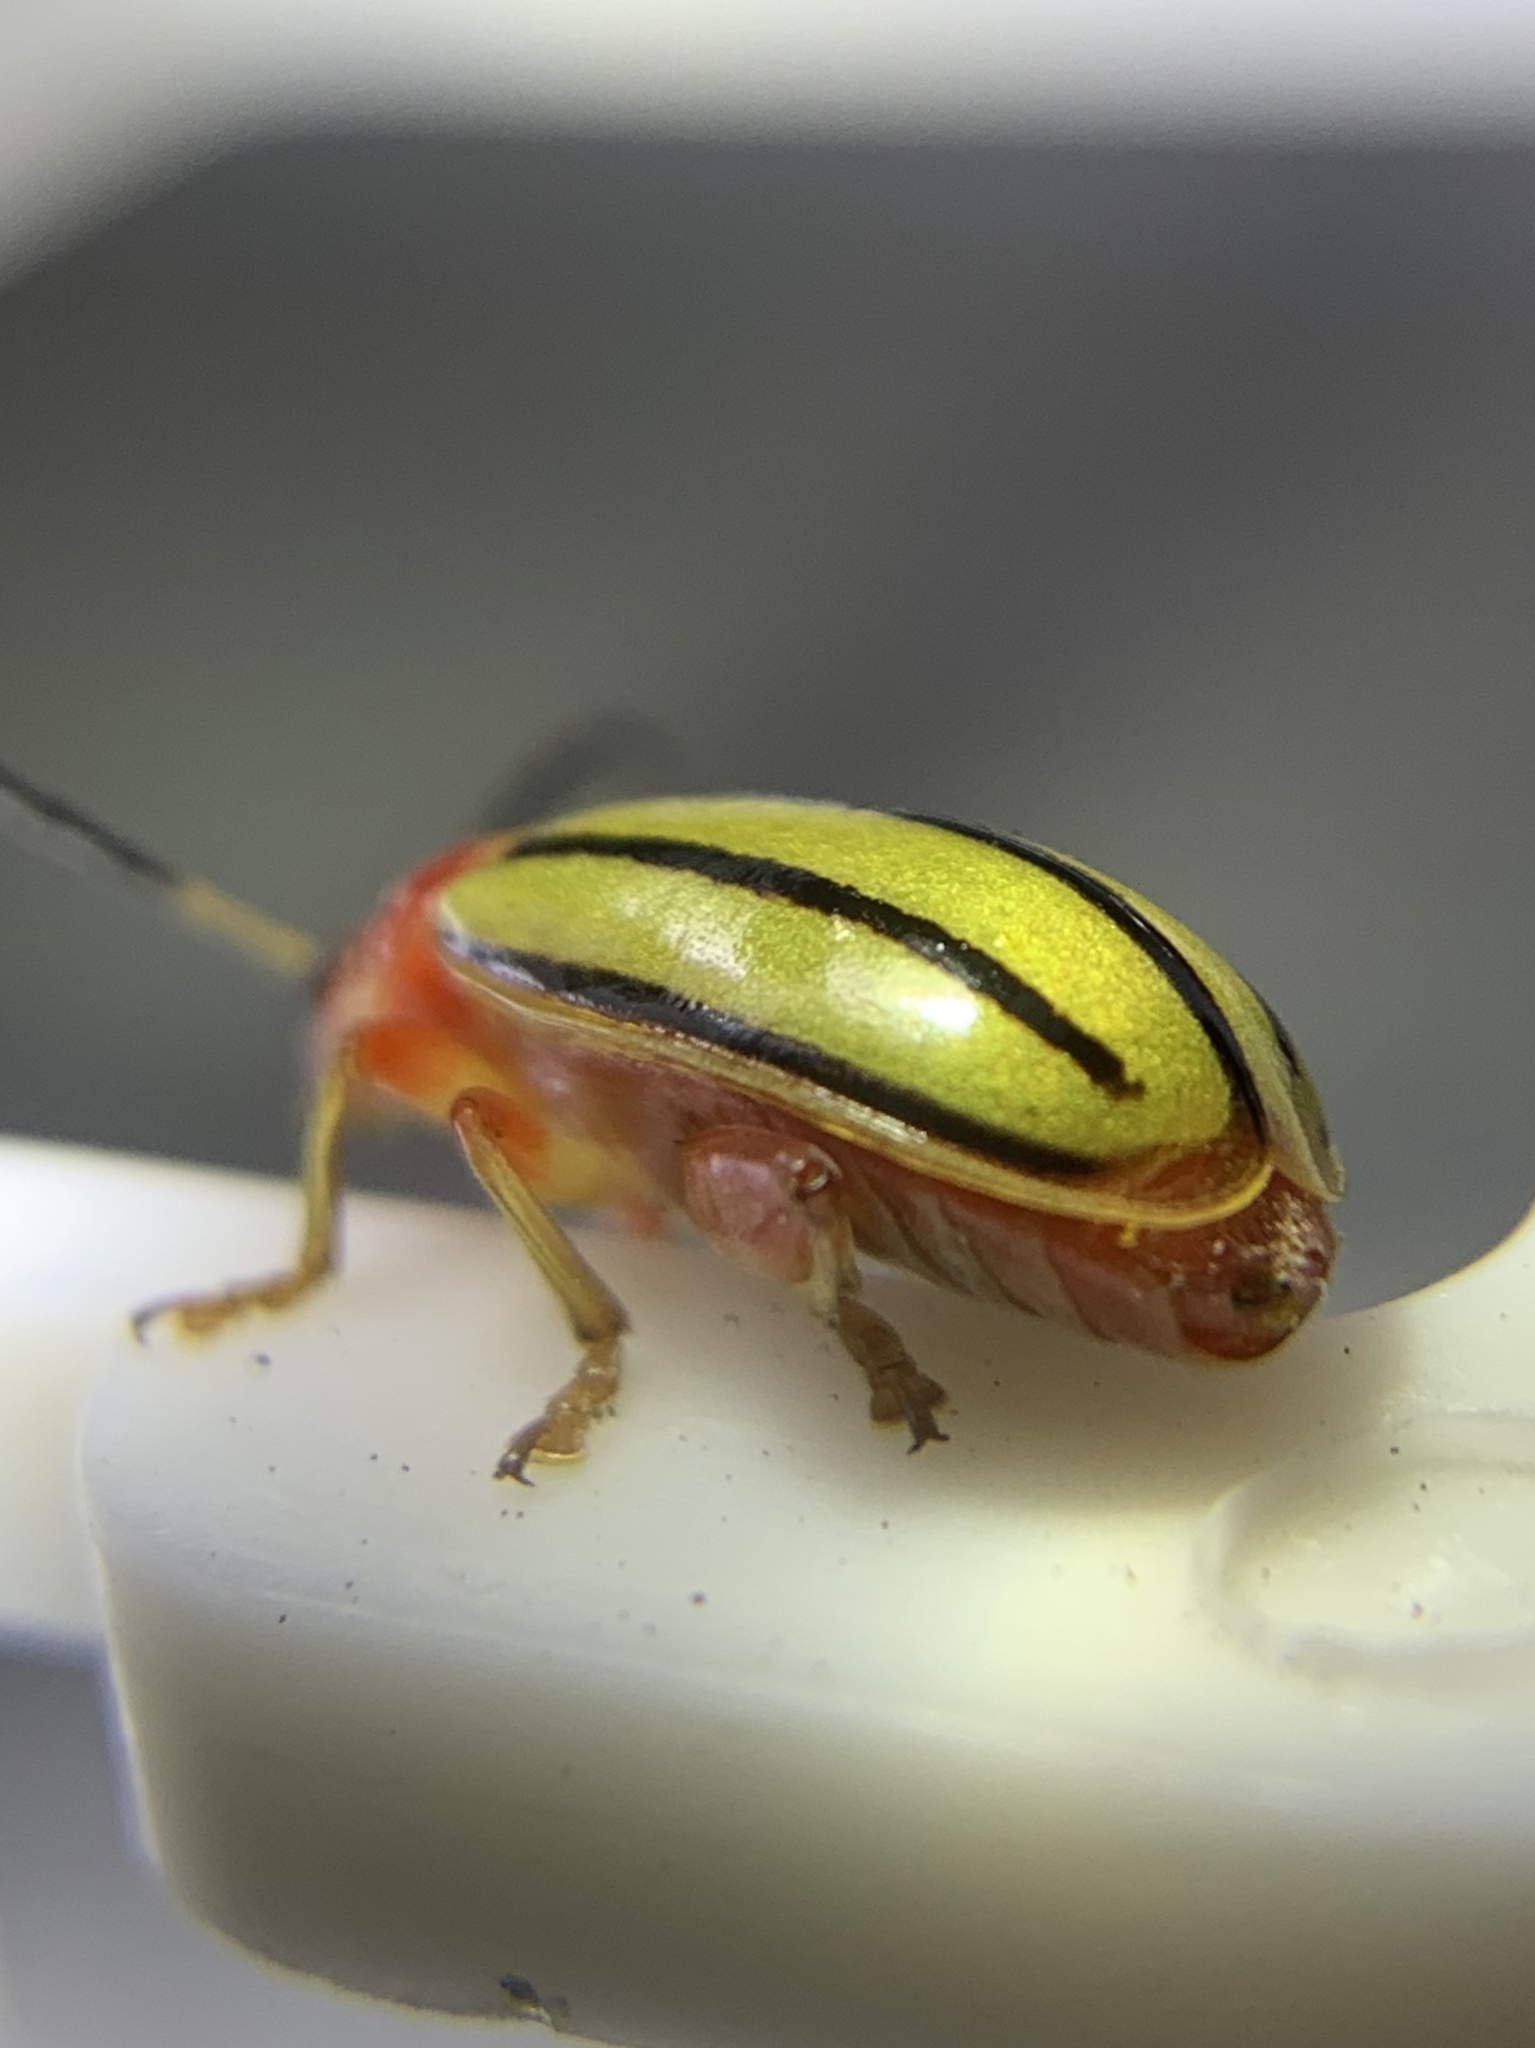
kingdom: Animalia
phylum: Arthropoda
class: Insecta
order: Coleoptera
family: Chrysomelidae
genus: Disonycha
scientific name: Disonycha
